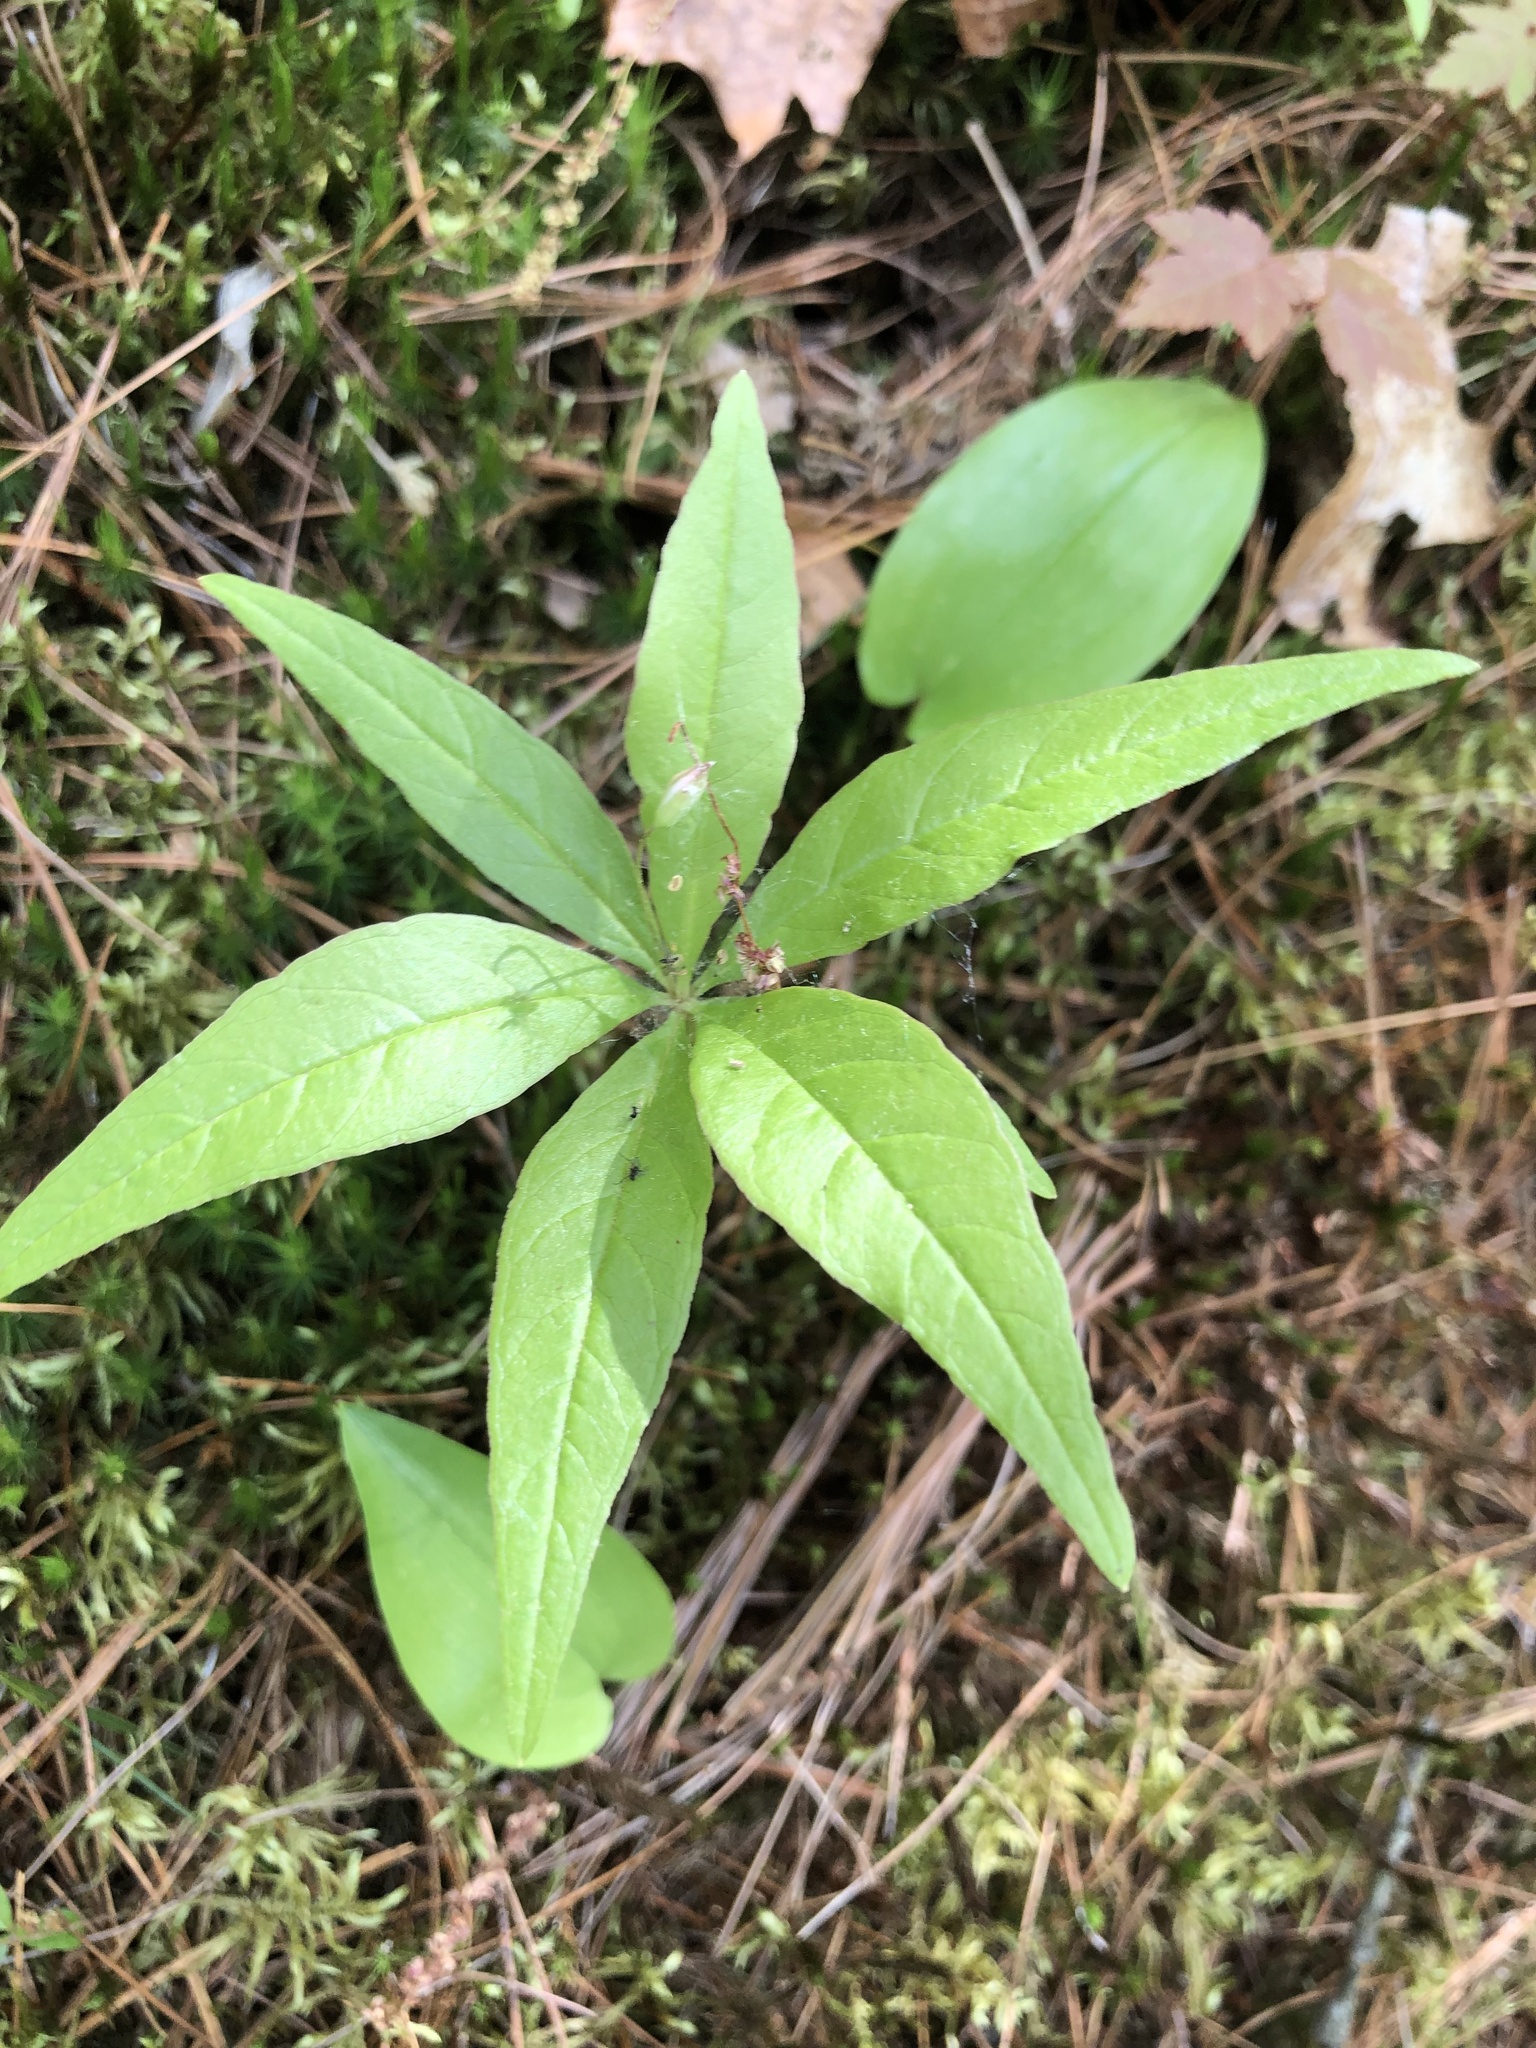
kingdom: Plantae
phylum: Tracheophyta
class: Magnoliopsida
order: Ericales
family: Primulaceae
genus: Lysimachia
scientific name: Lysimachia borealis
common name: American starflower
